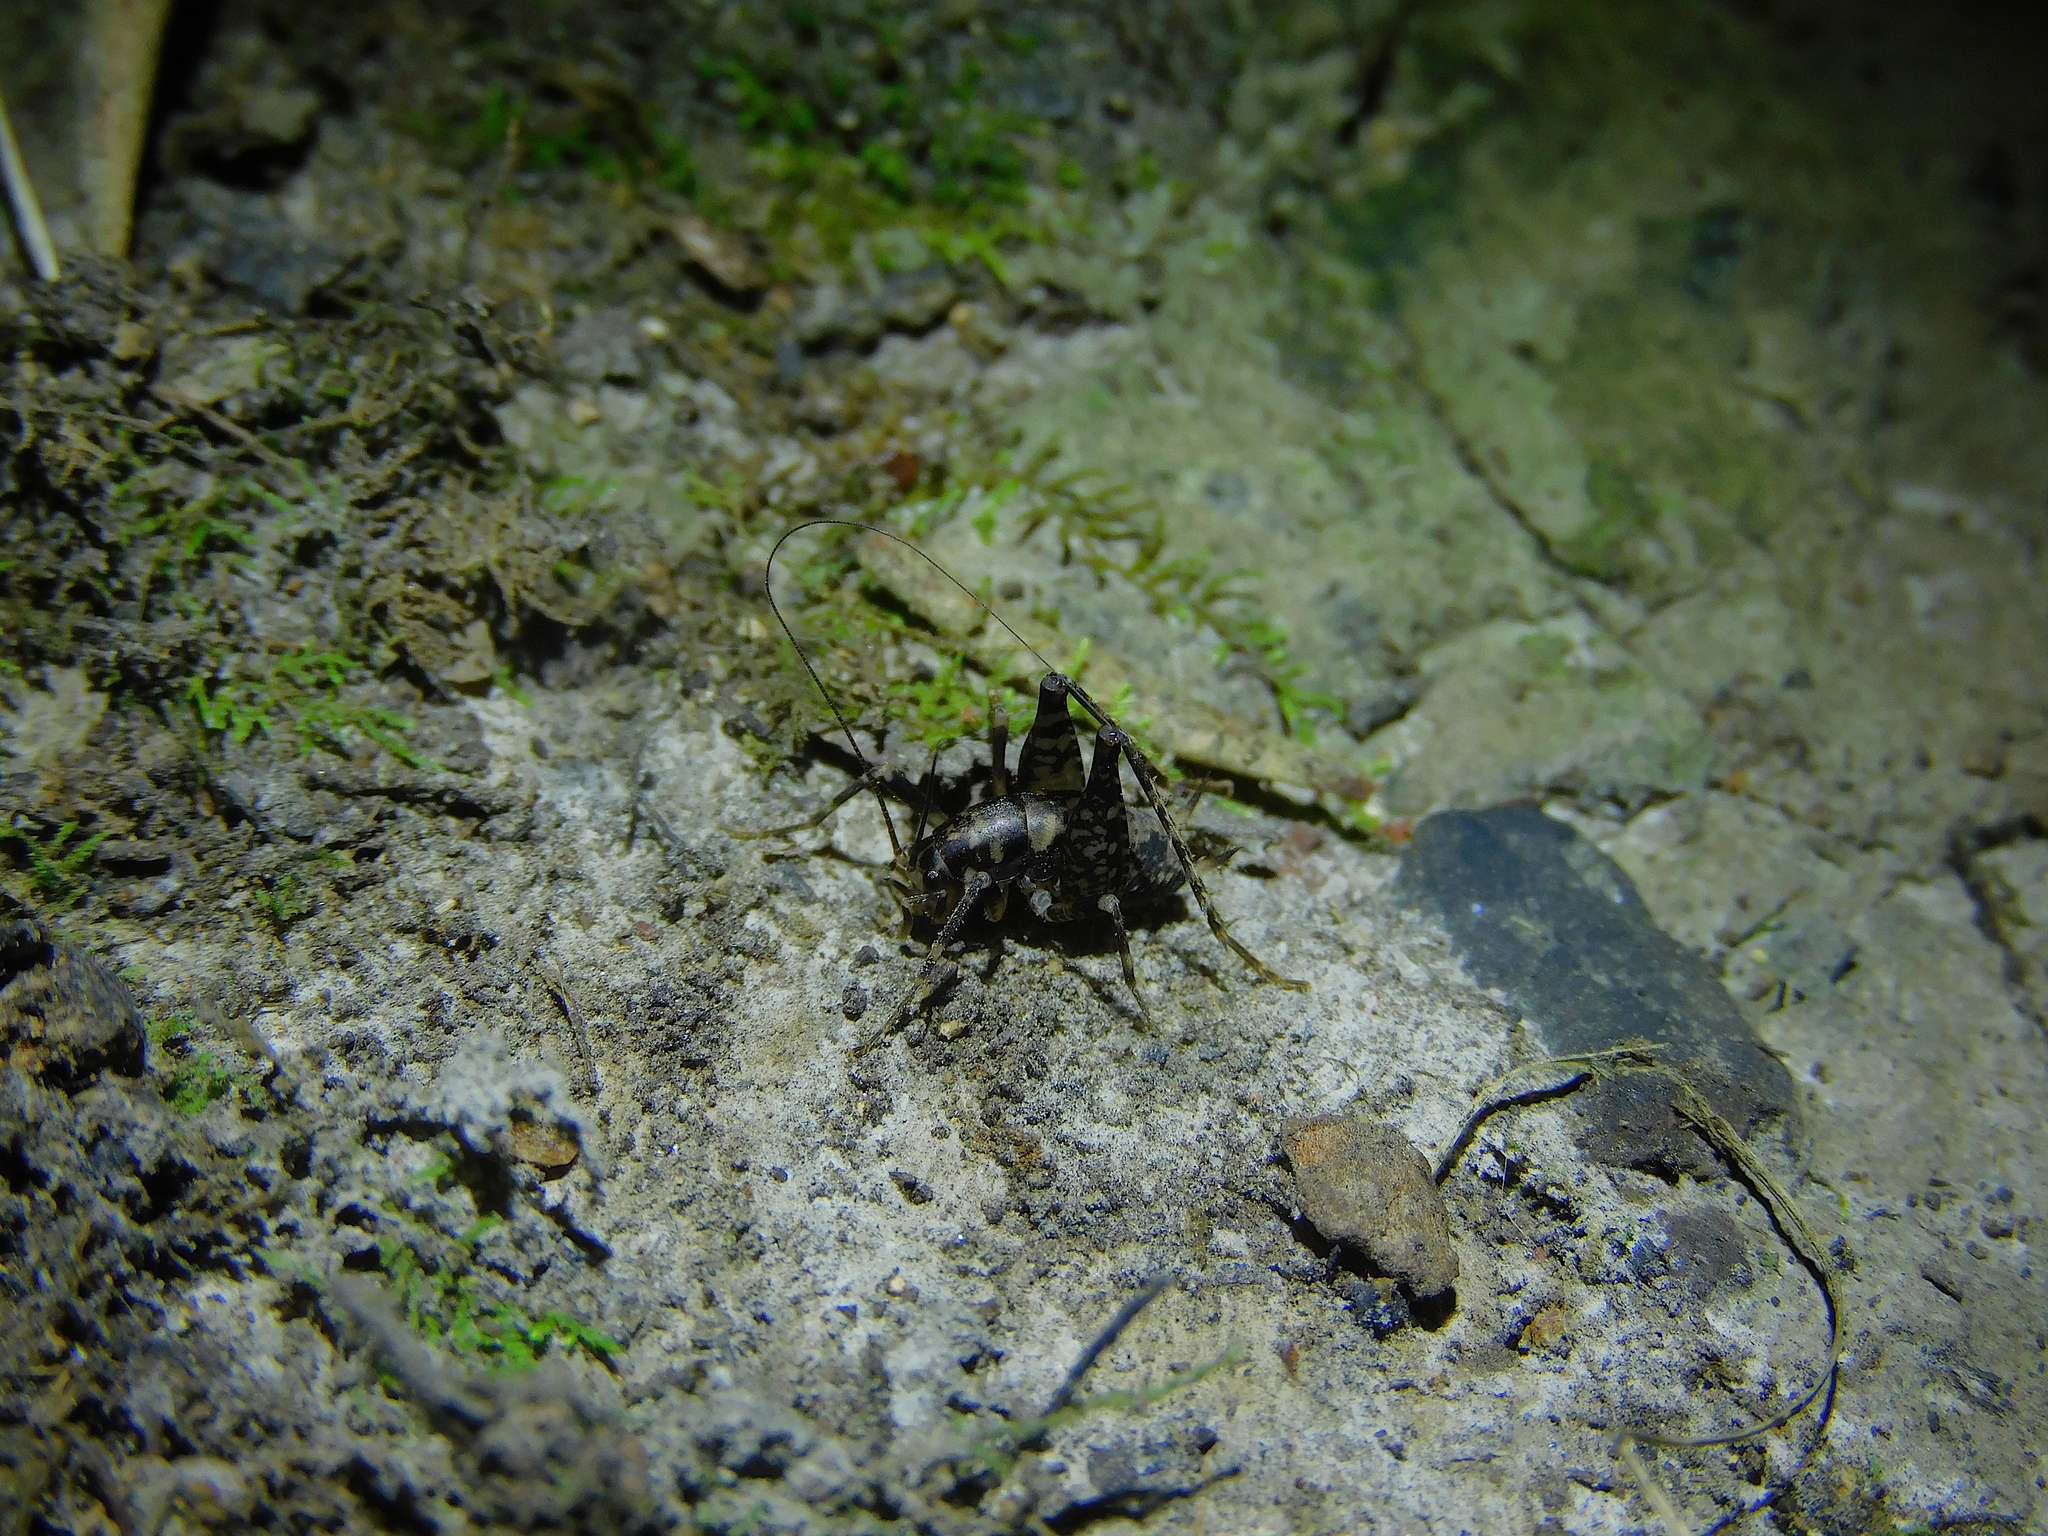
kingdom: Animalia
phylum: Arthropoda
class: Insecta
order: Orthoptera
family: Rhaphidophoridae
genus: Parvotettix
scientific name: Parvotettix domesticus
